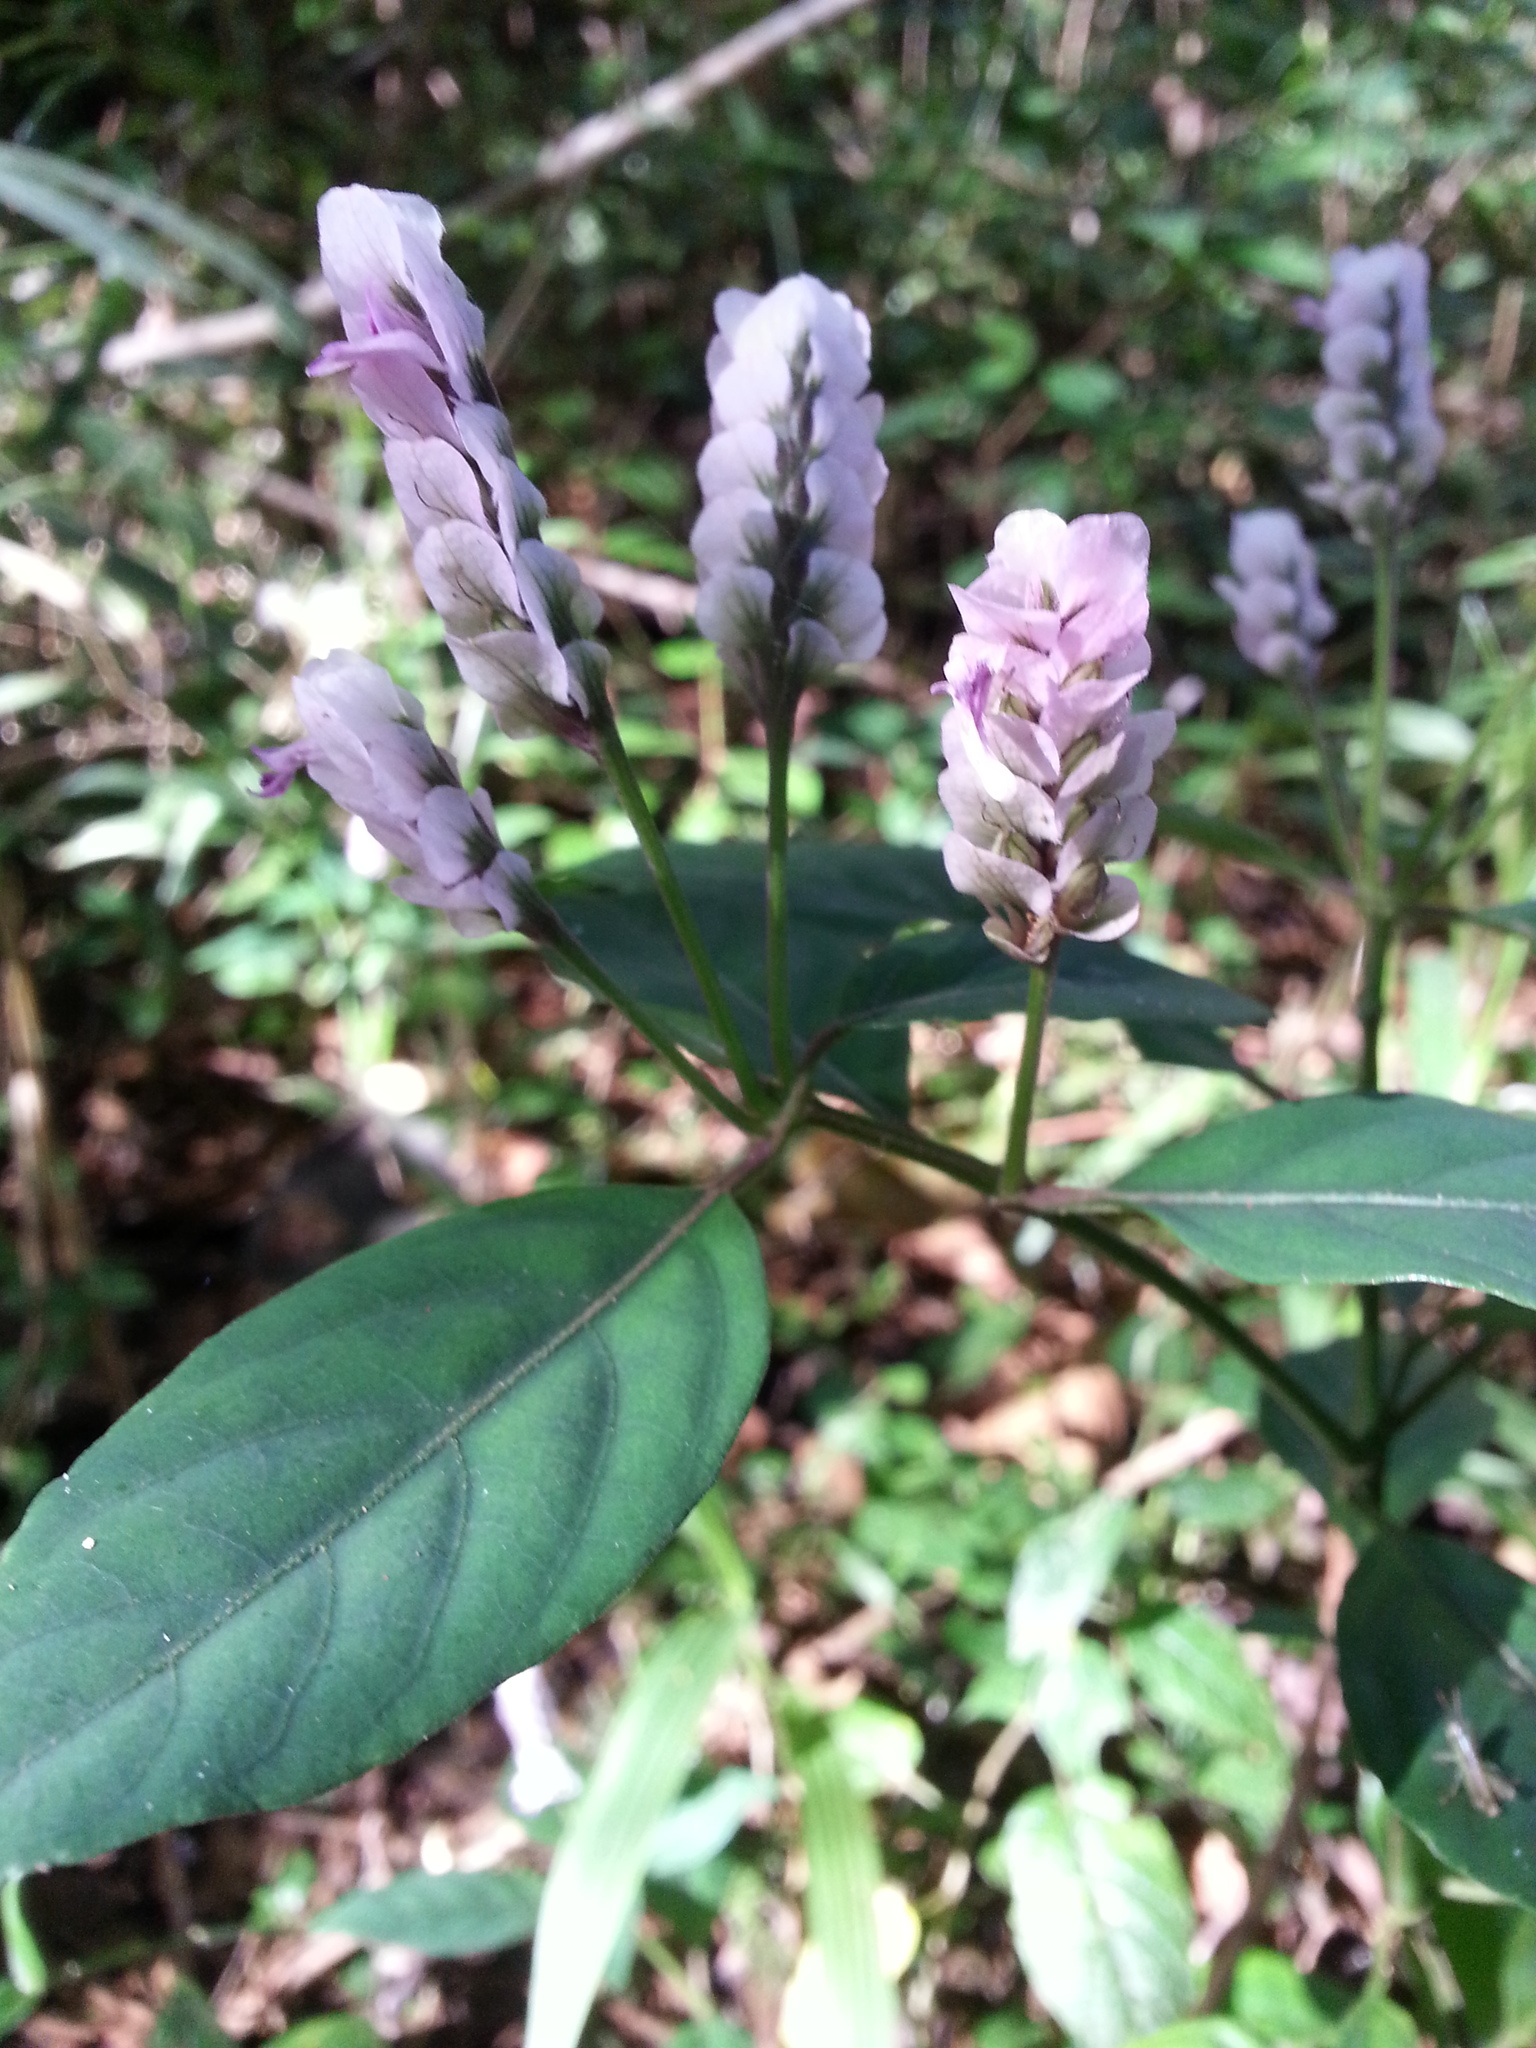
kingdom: Plantae
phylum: Tracheophyta
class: Magnoliopsida
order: Lamiales
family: Acanthaceae
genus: Justicia
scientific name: Justicia rhodoptera
